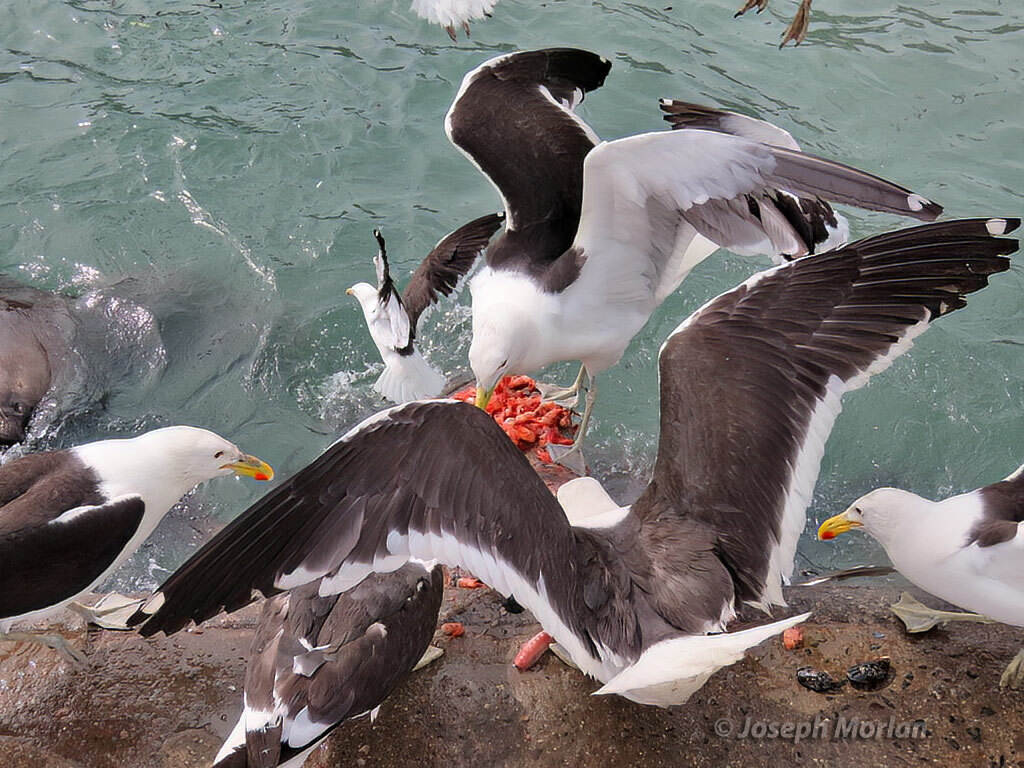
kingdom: Animalia
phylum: Chordata
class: Aves
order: Charadriiformes
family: Laridae
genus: Larus
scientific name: Larus dominicanus
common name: Kelp gull
